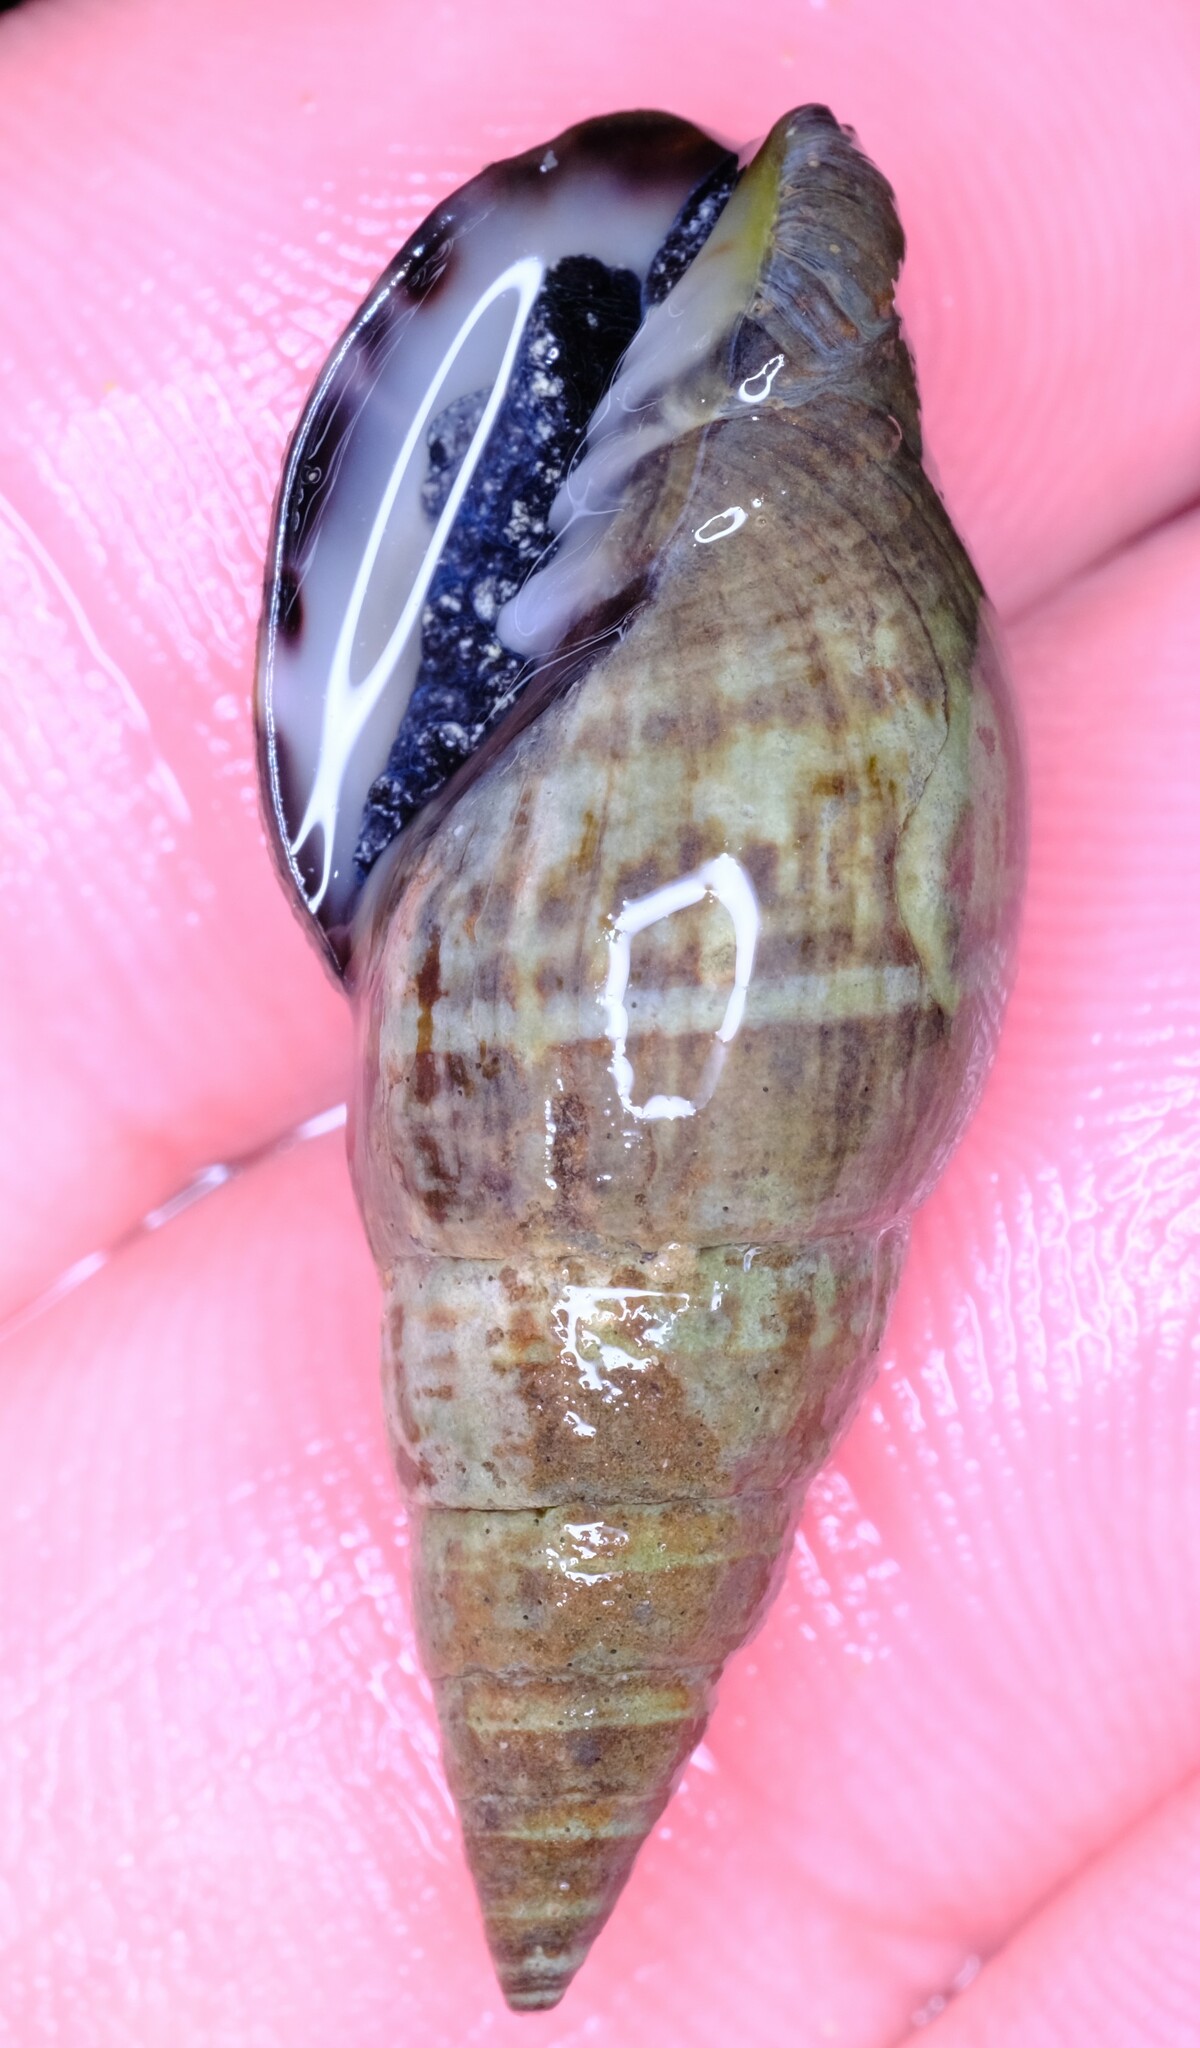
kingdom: Animalia
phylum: Mollusca
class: Gastropoda
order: Neogastropoda
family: Costellariidae
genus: Turriplicifer
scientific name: Turriplicifer australis
